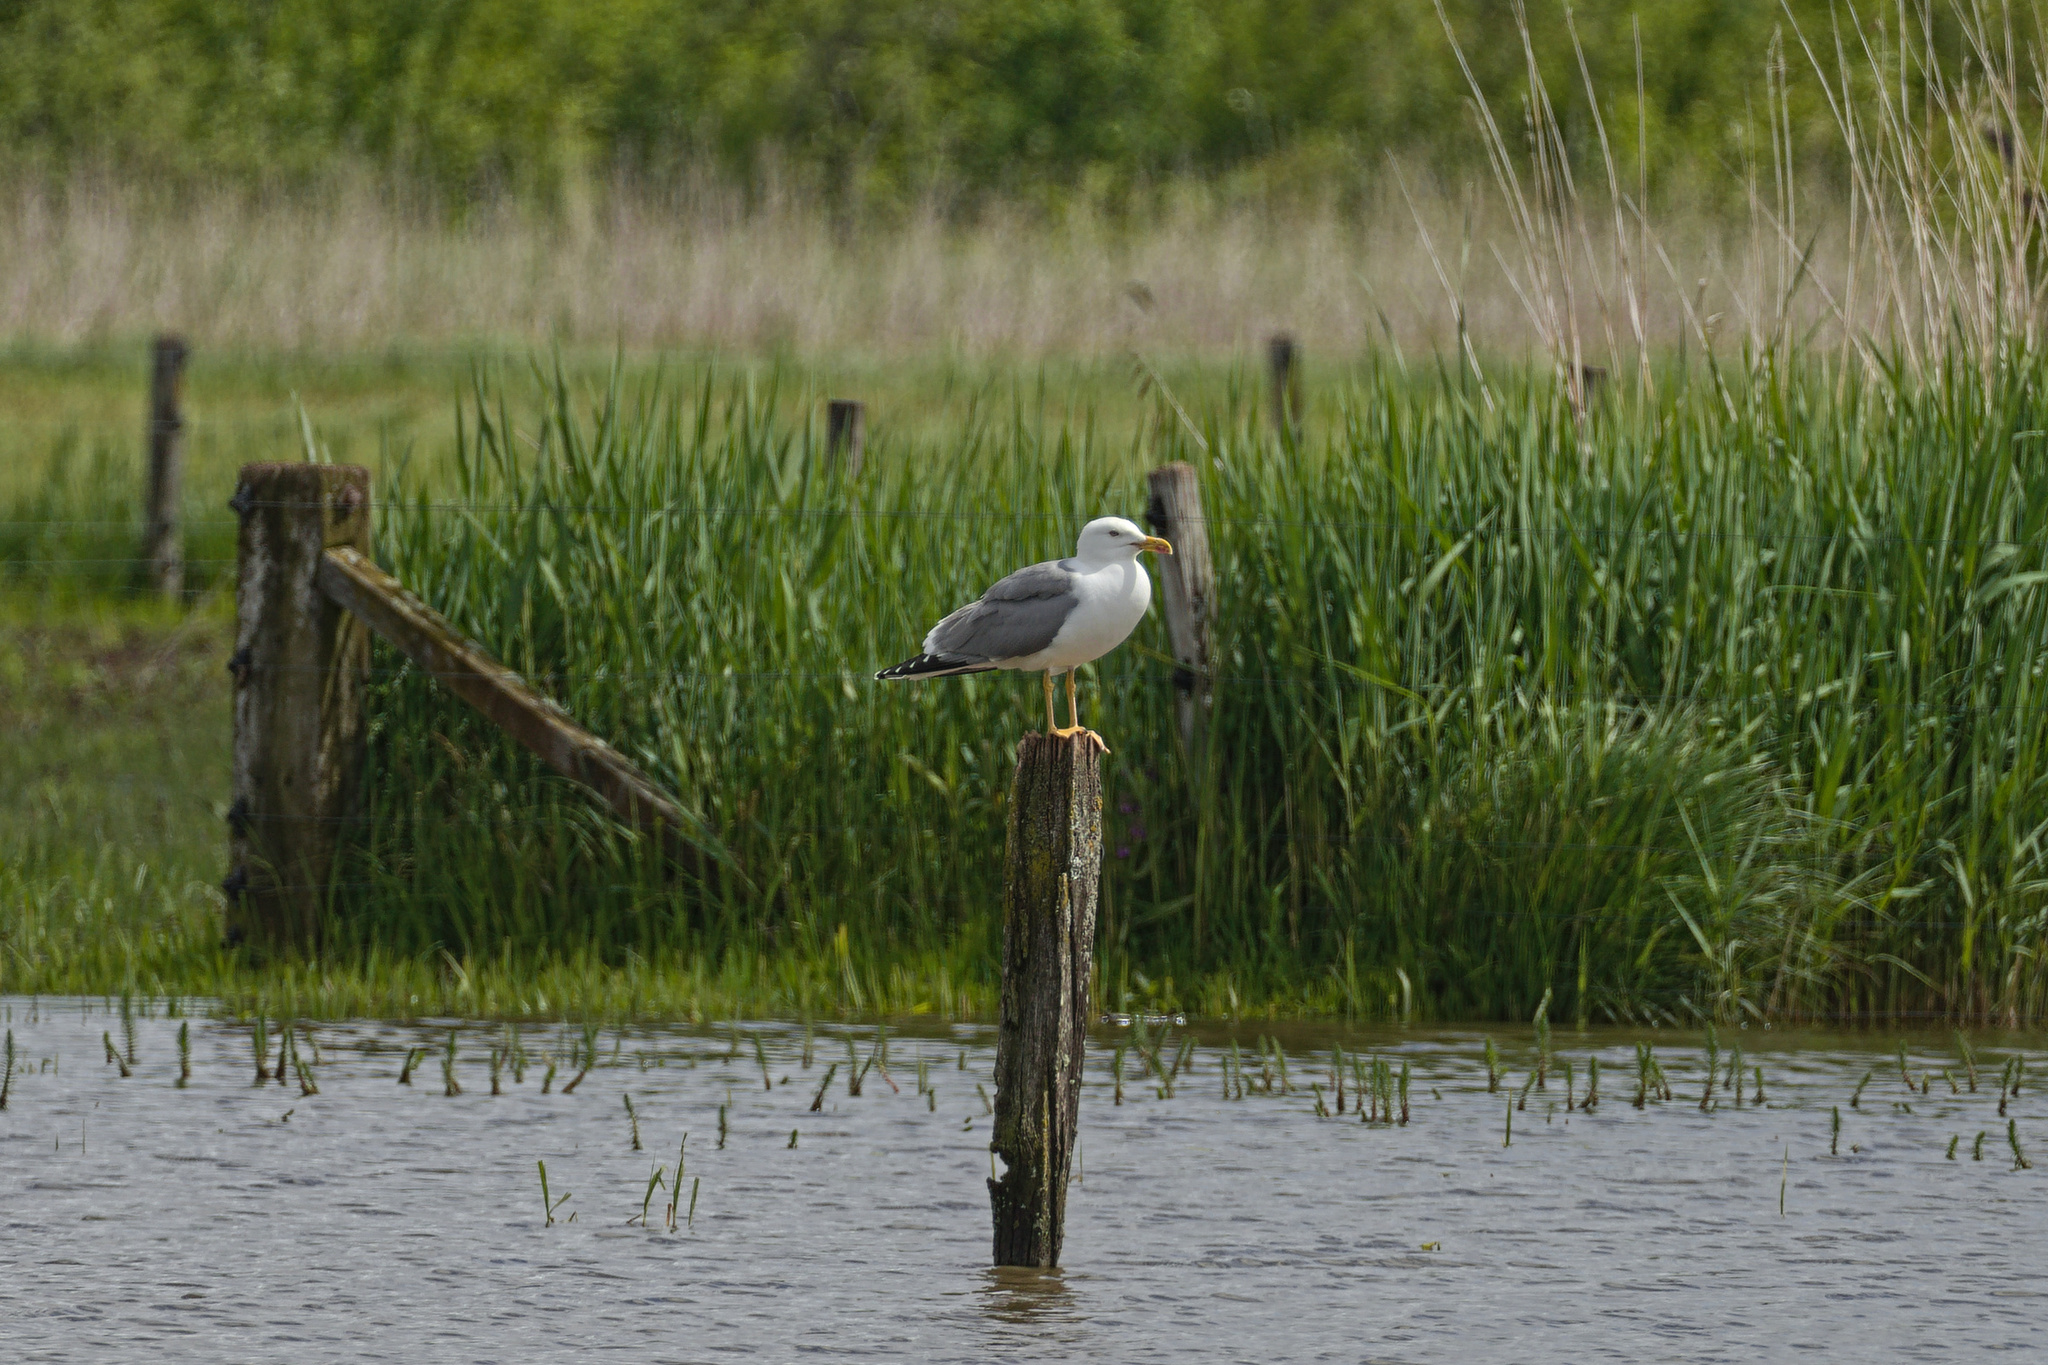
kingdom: Animalia
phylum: Chordata
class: Aves
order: Charadriiformes
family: Laridae
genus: Larus
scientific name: Larus michahellis
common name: Yellow-legged gull
